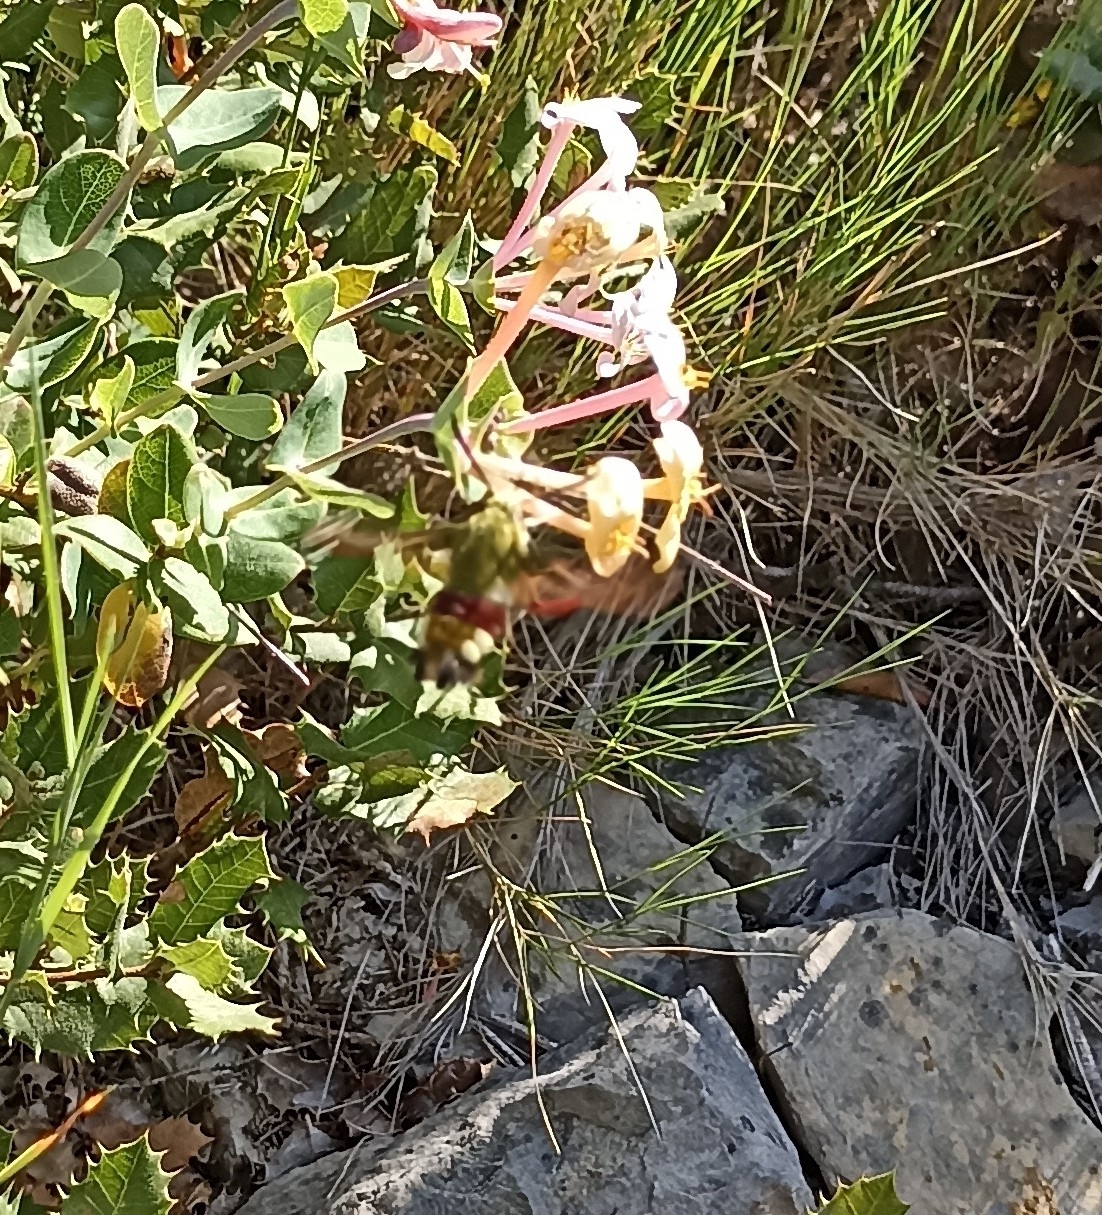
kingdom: Animalia
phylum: Arthropoda
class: Insecta
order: Lepidoptera
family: Sphingidae
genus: Hemaris
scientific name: Hemaris fuciformis
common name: Broad-bordered bee hawk-moth
